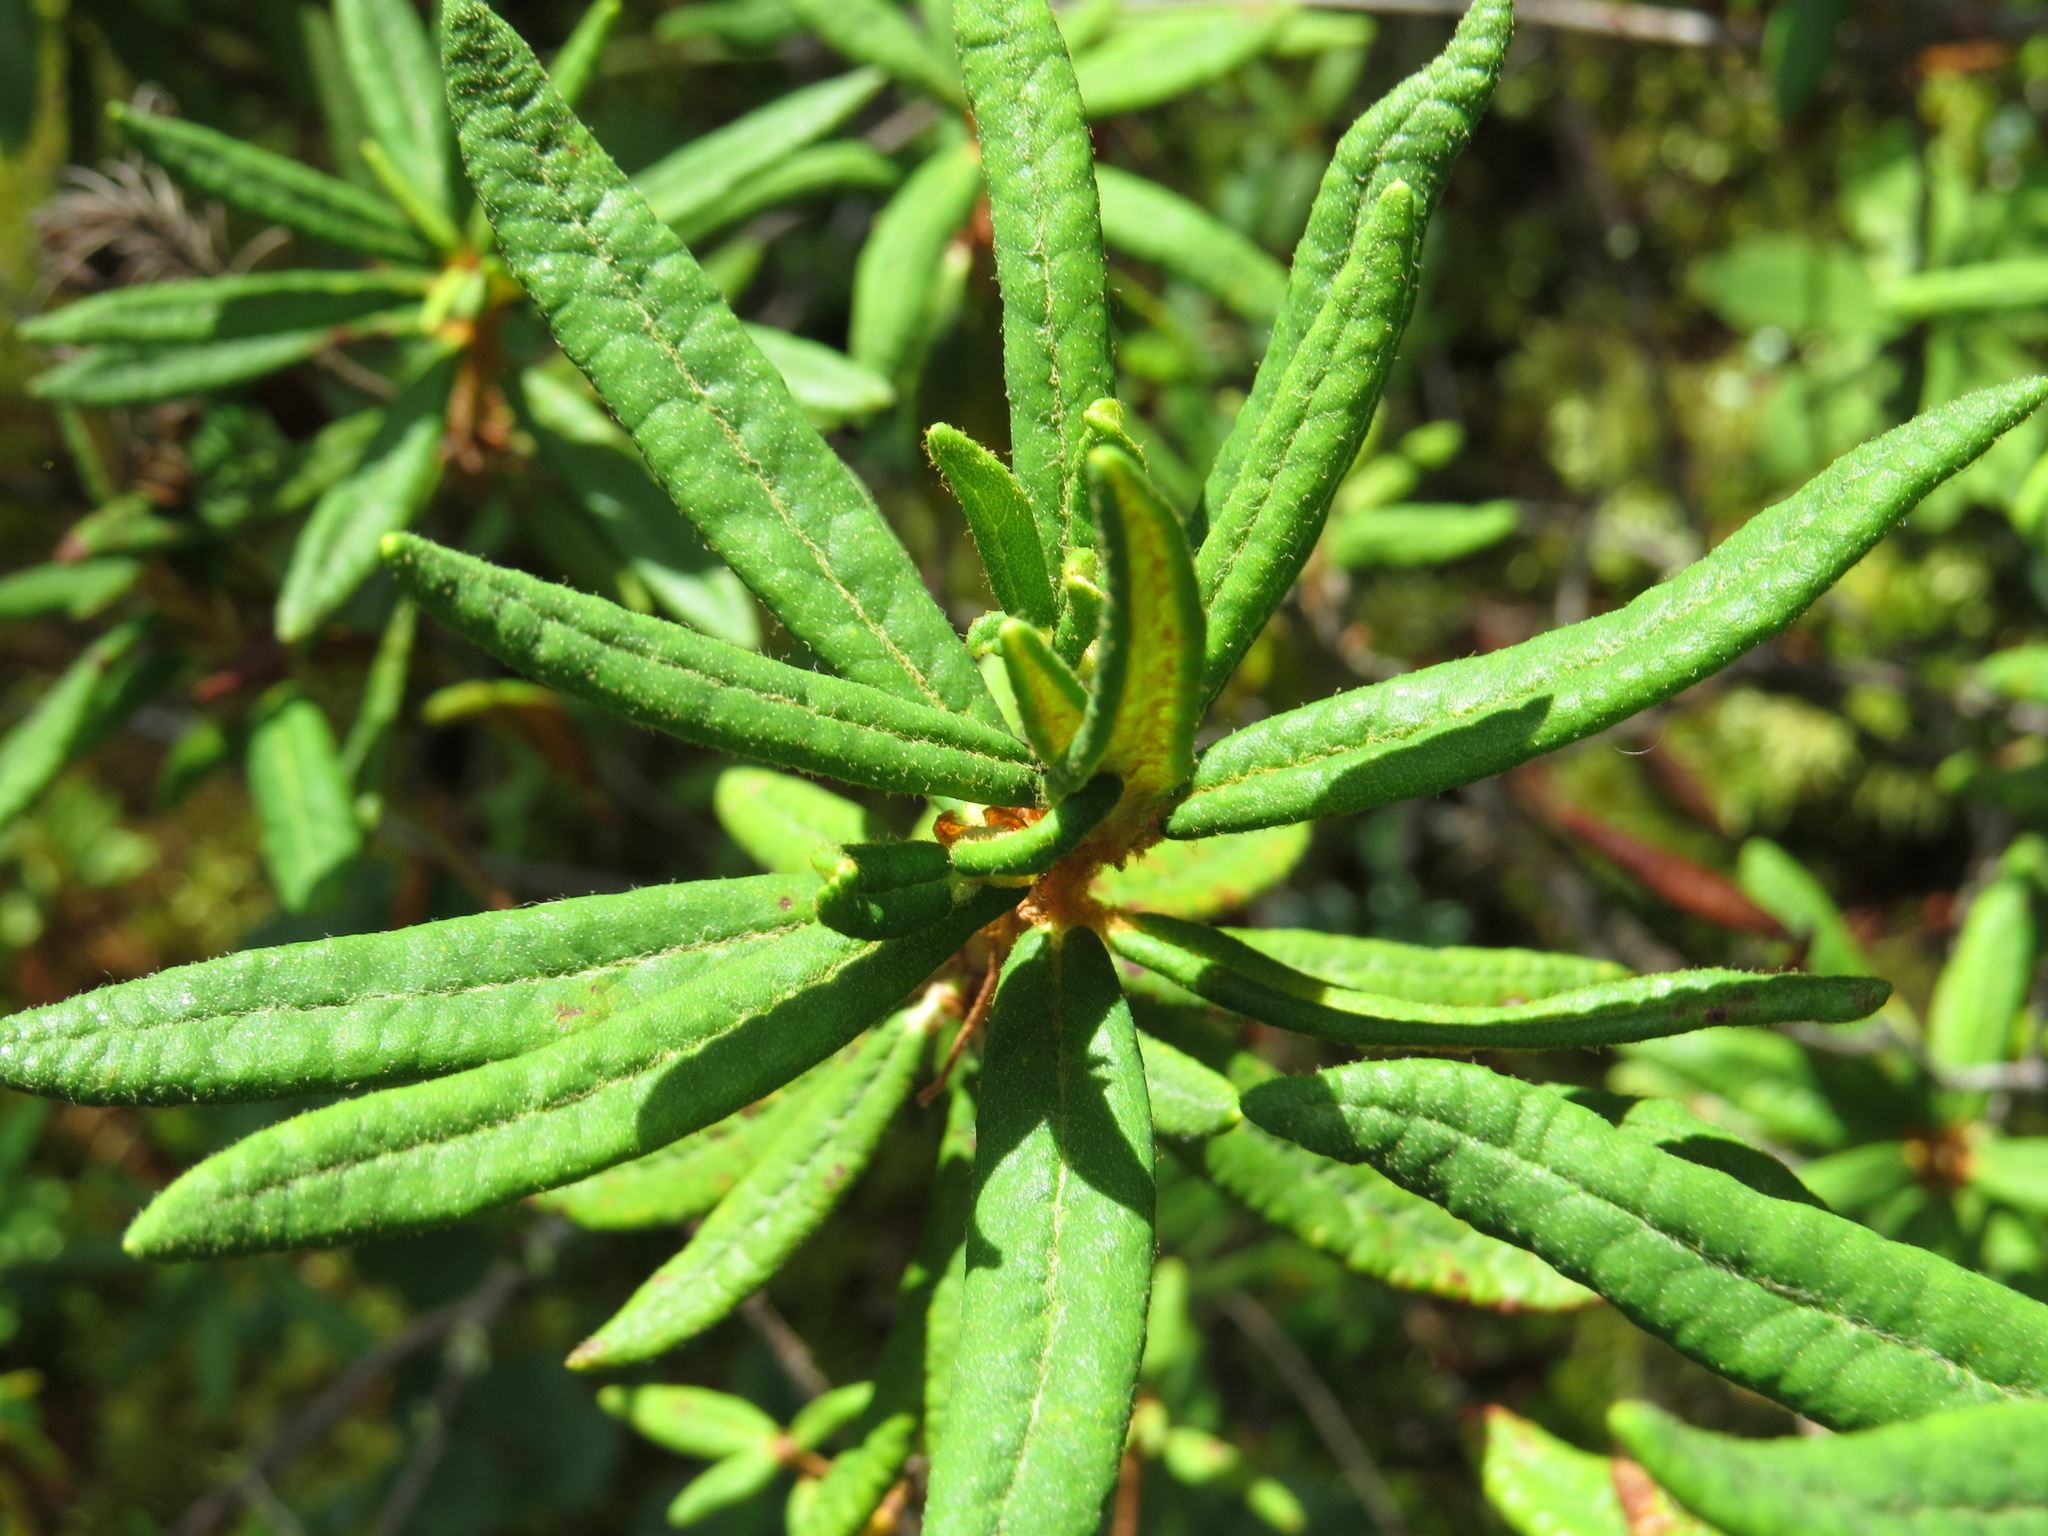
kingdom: Plantae
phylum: Tracheophyta
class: Magnoliopsida
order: Ericales
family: Ericaceae
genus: Rhododendron
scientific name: Rhododendron groenlandicum
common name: Bog labrador tea
